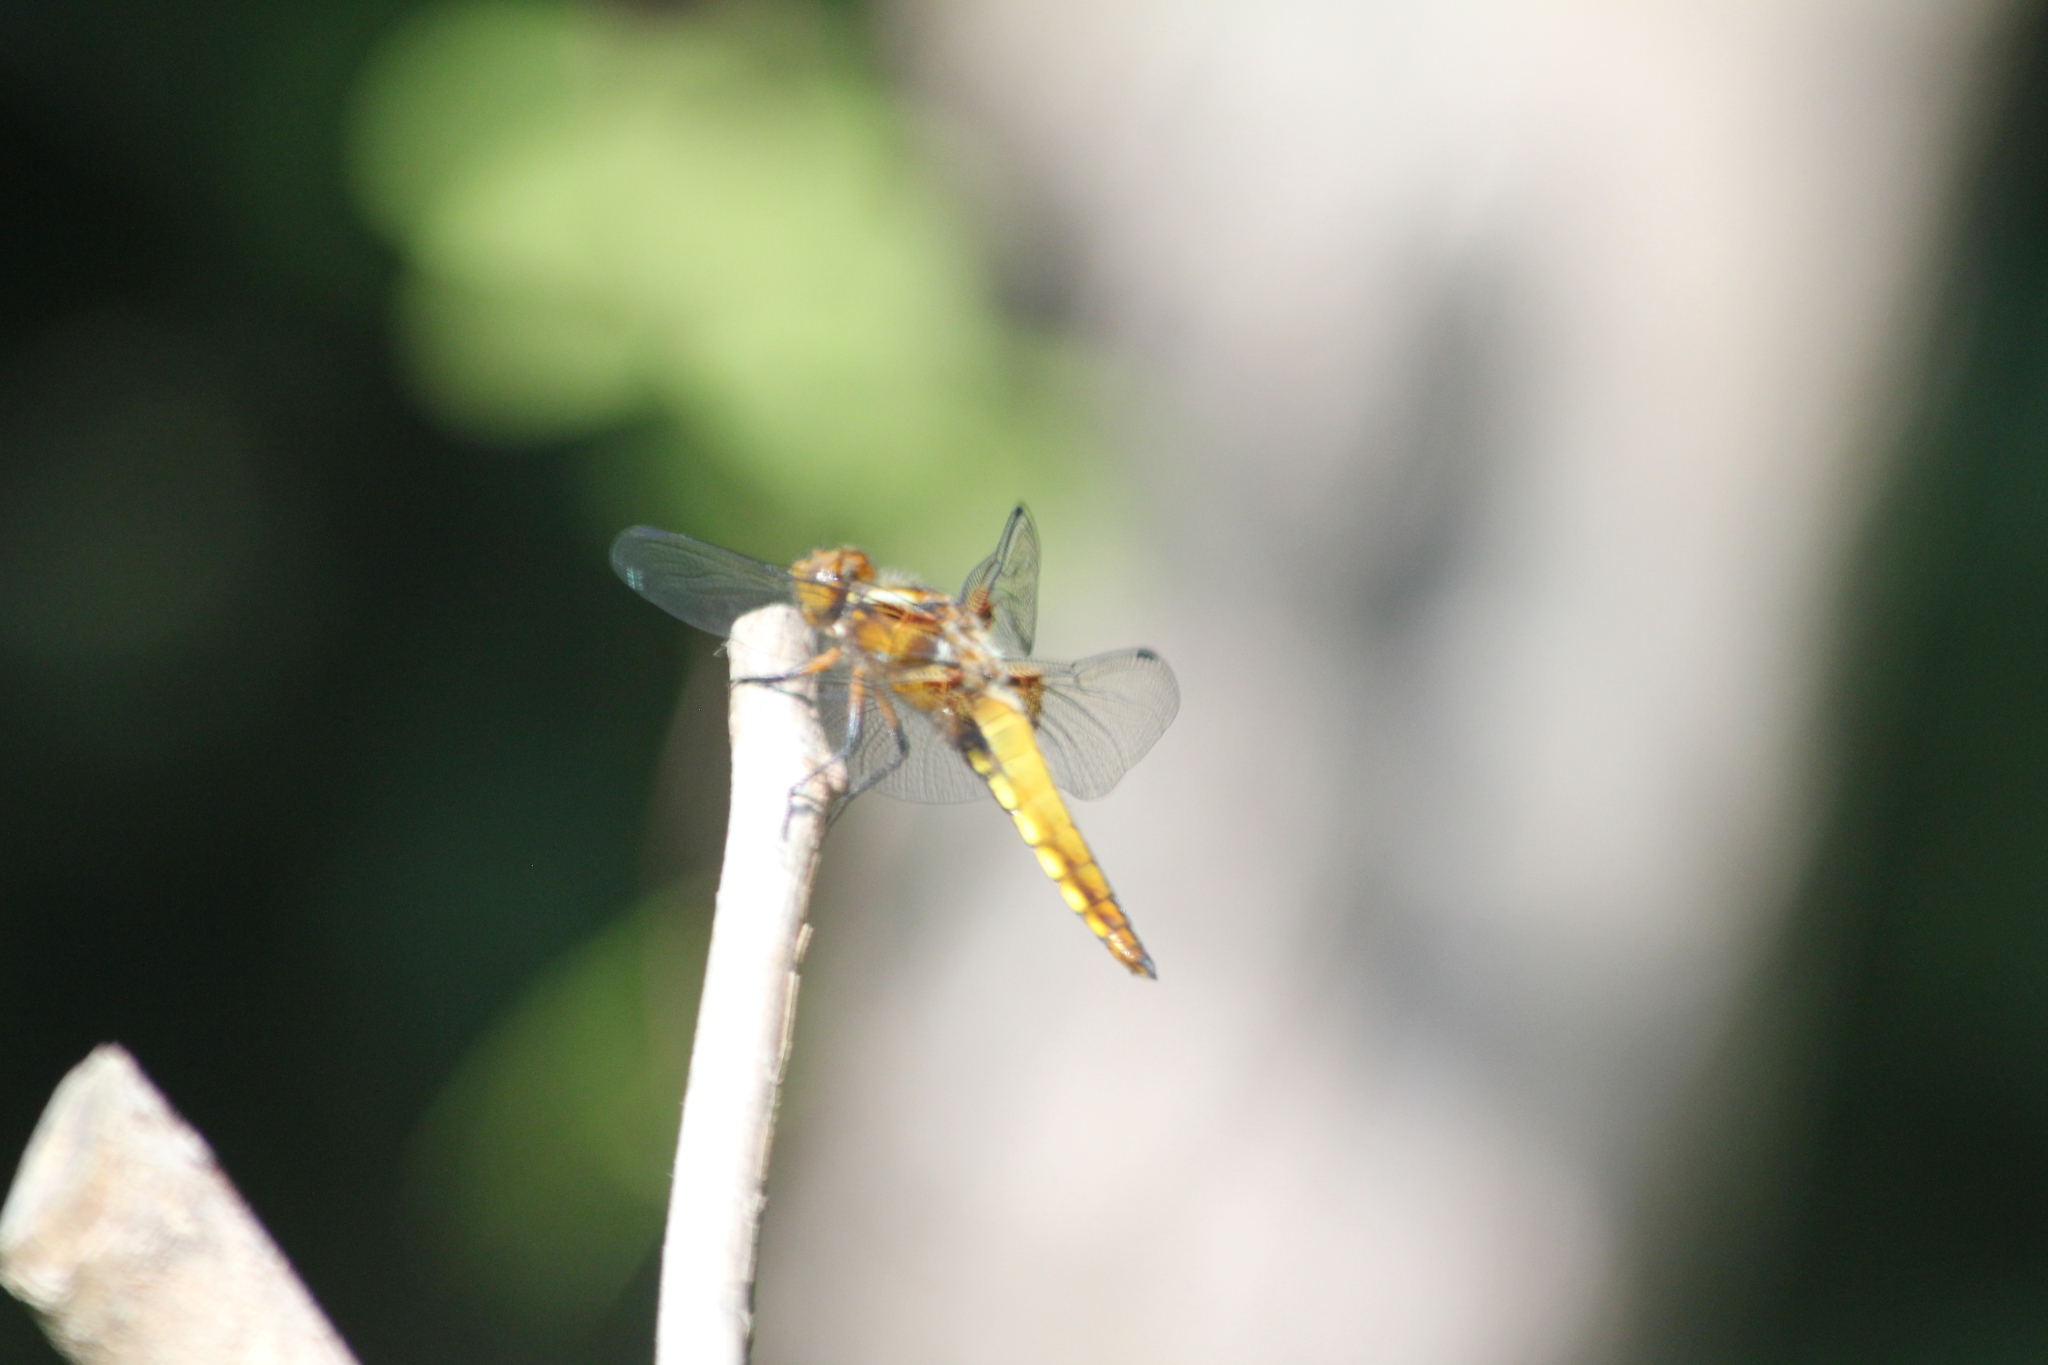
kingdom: Animalia
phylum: Arthropoda
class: Insecta
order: Odonata
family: Libellulidae
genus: Libellula
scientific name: Libellula depressa
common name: Broad-bodied chaser
